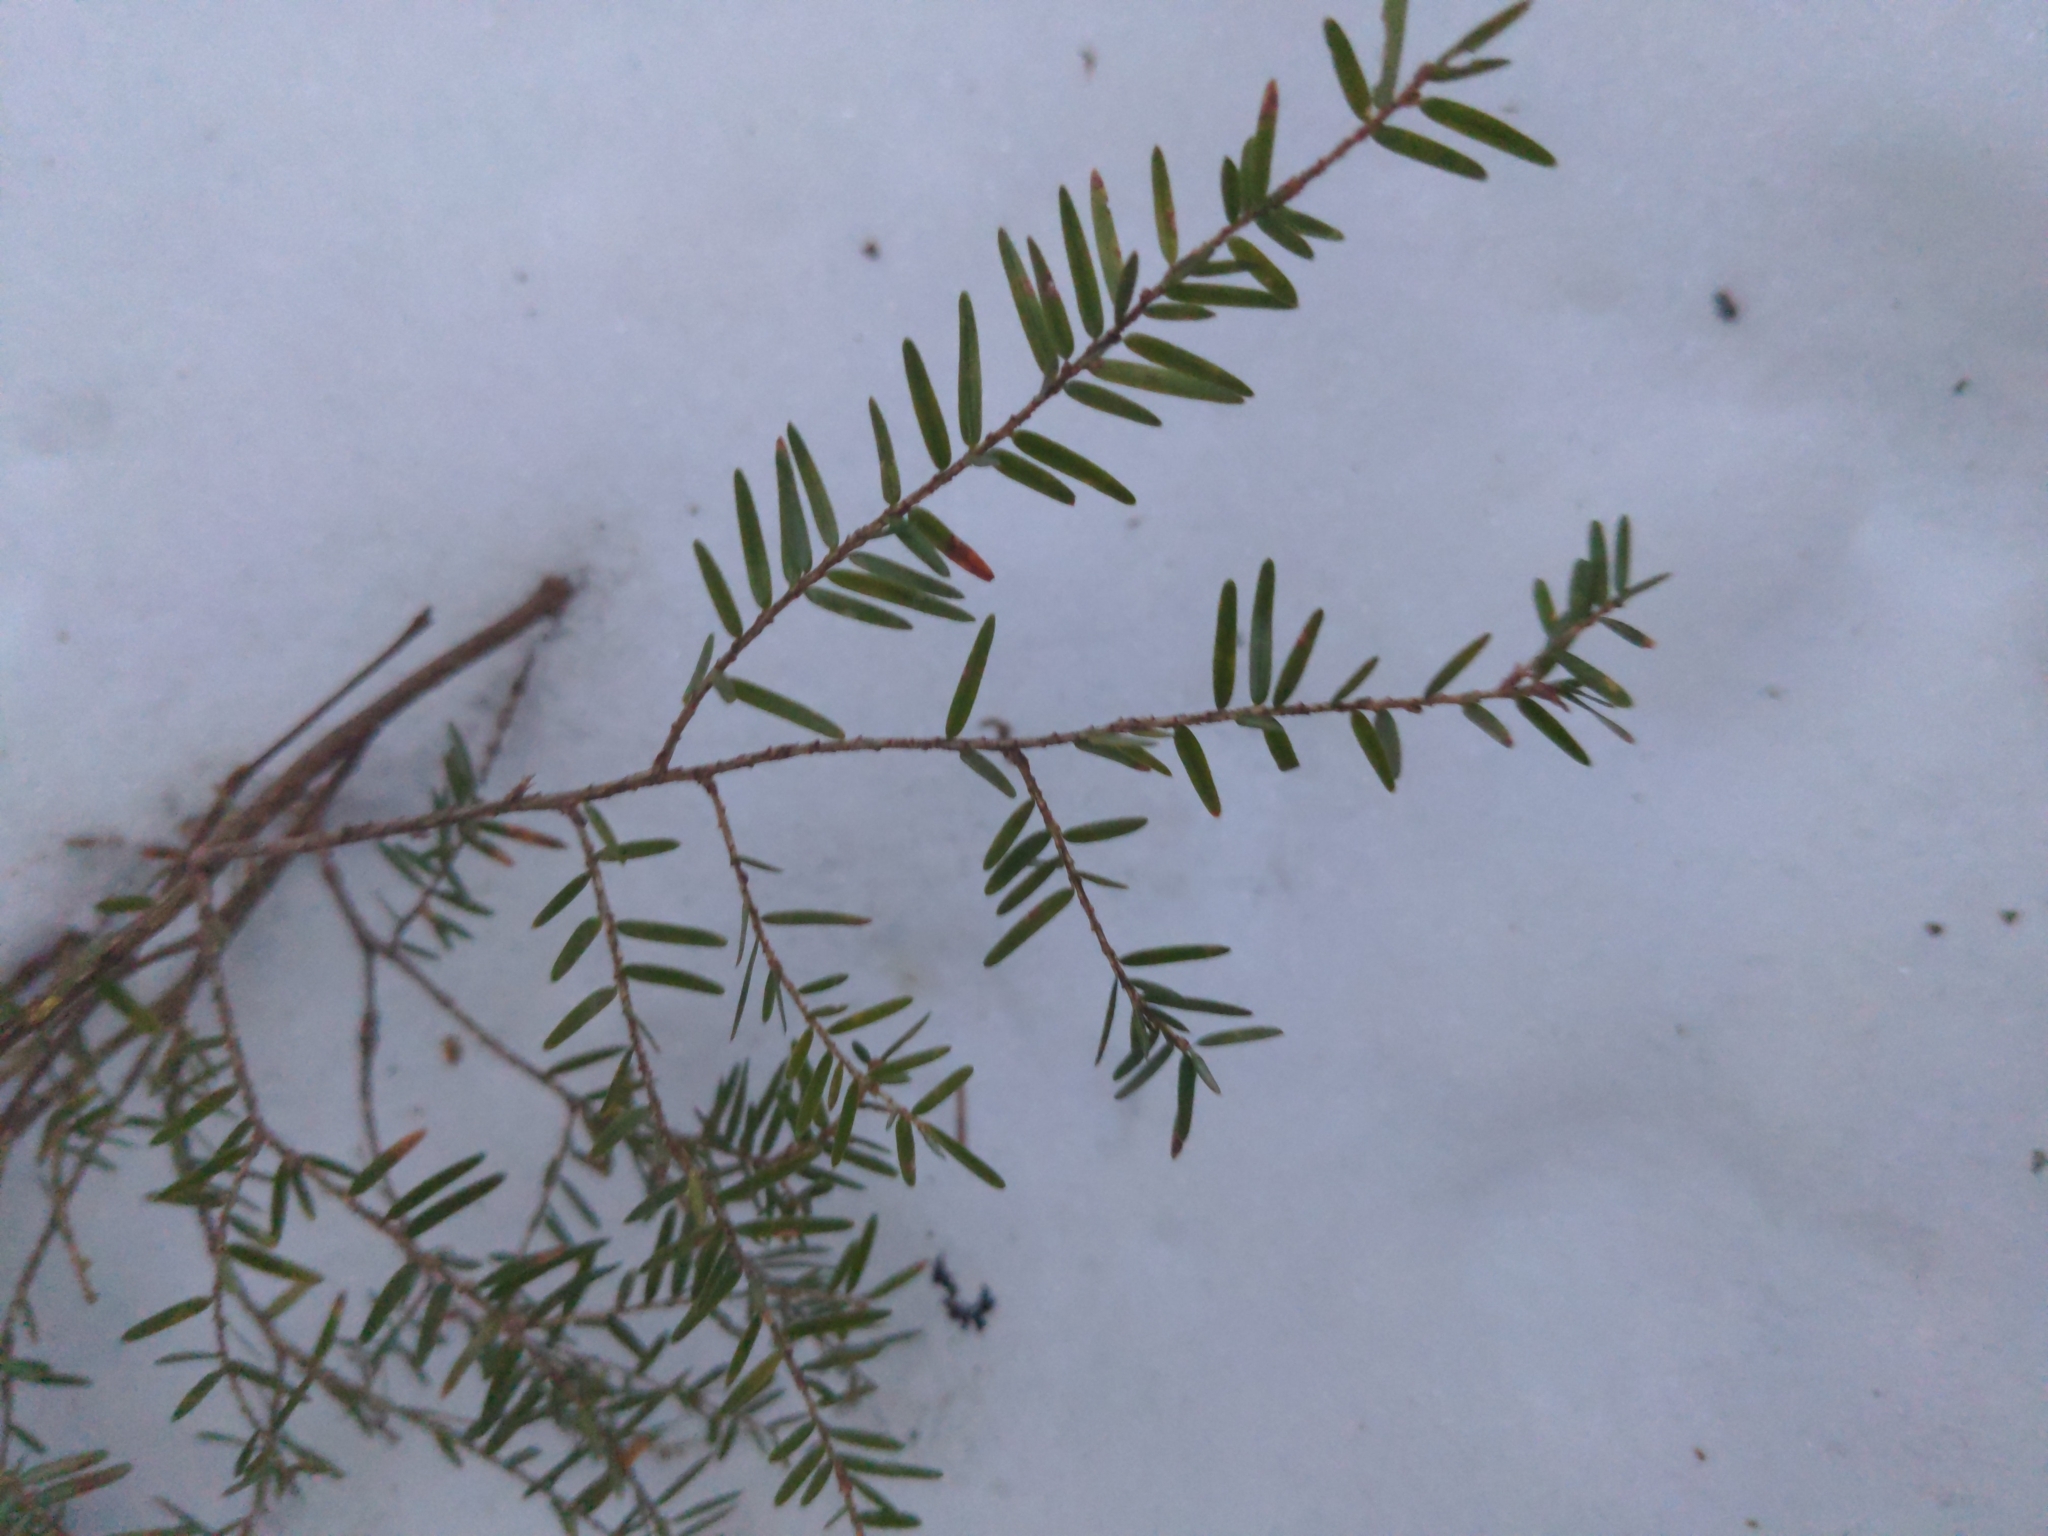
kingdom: Plantae
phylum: Tracheophyta
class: Pinopsida
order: Pinales
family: Pinaceae
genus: Tsuga
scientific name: Tsuga canadensis
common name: Eastern hemlock
